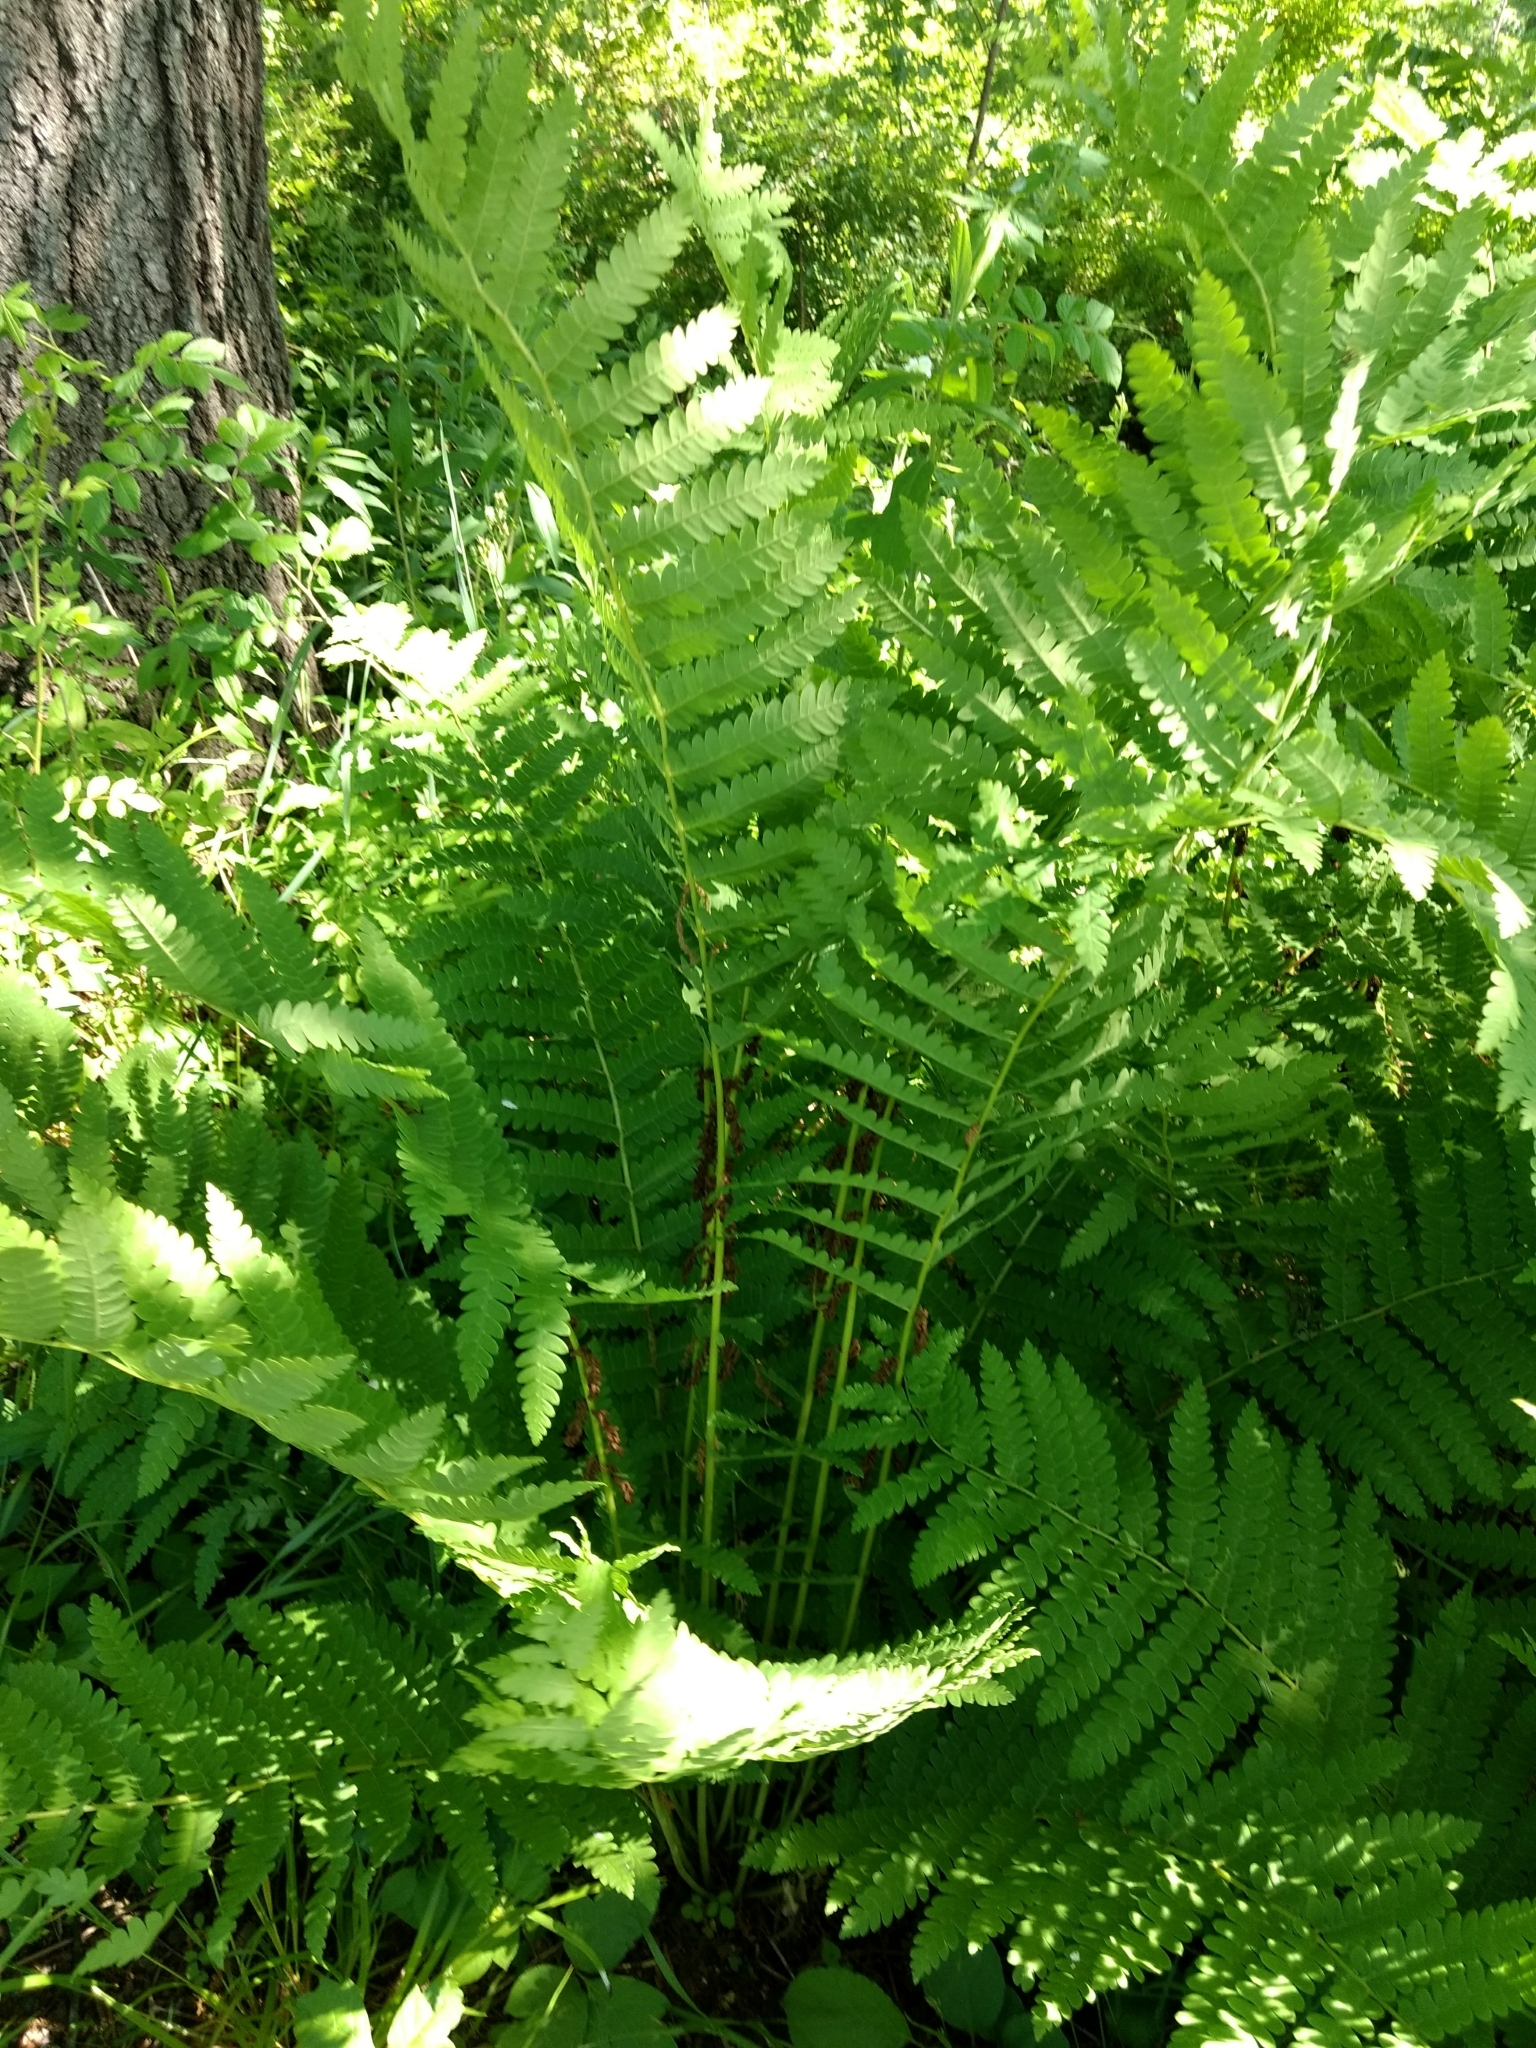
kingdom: Plantae
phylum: Tracheophyta
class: Polypodiopsida
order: Osmundales
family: Osmundaceae
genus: Claytosmunda
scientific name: Claytosmunda claytoniana
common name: Clayton's fern
